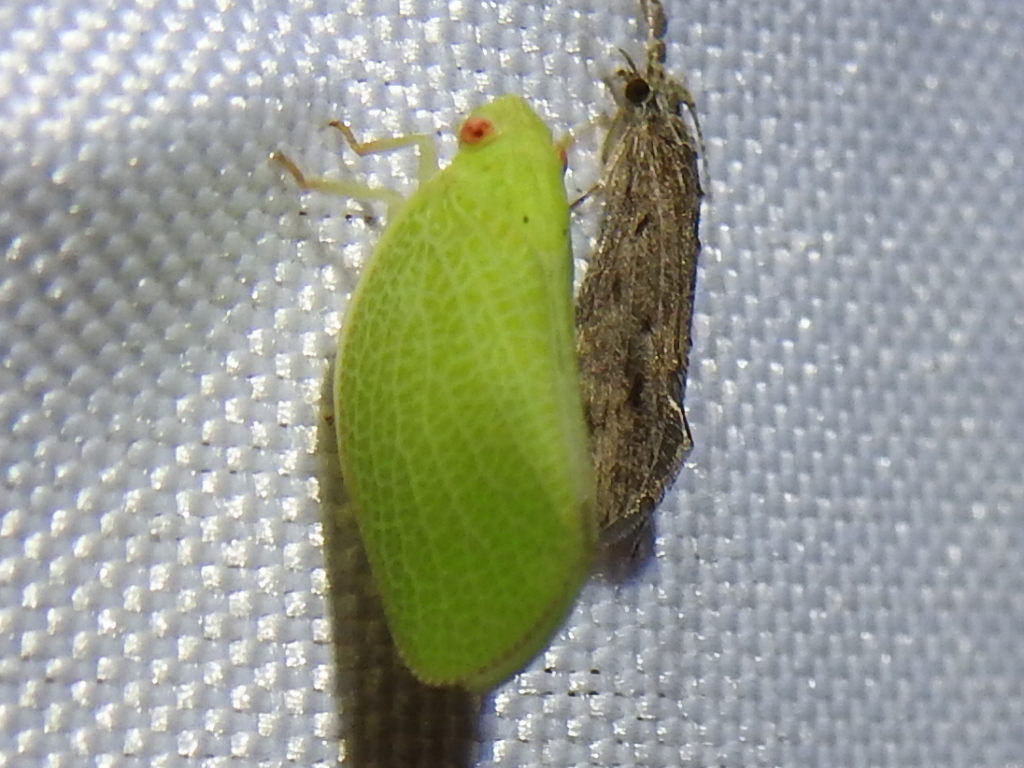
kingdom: Animalia
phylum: Arthropoda
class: Insecta
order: Hemiptera
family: Acanaloniidae
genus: Acanalonia
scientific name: Acanalonia conica
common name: Green cone-headed planthopper
